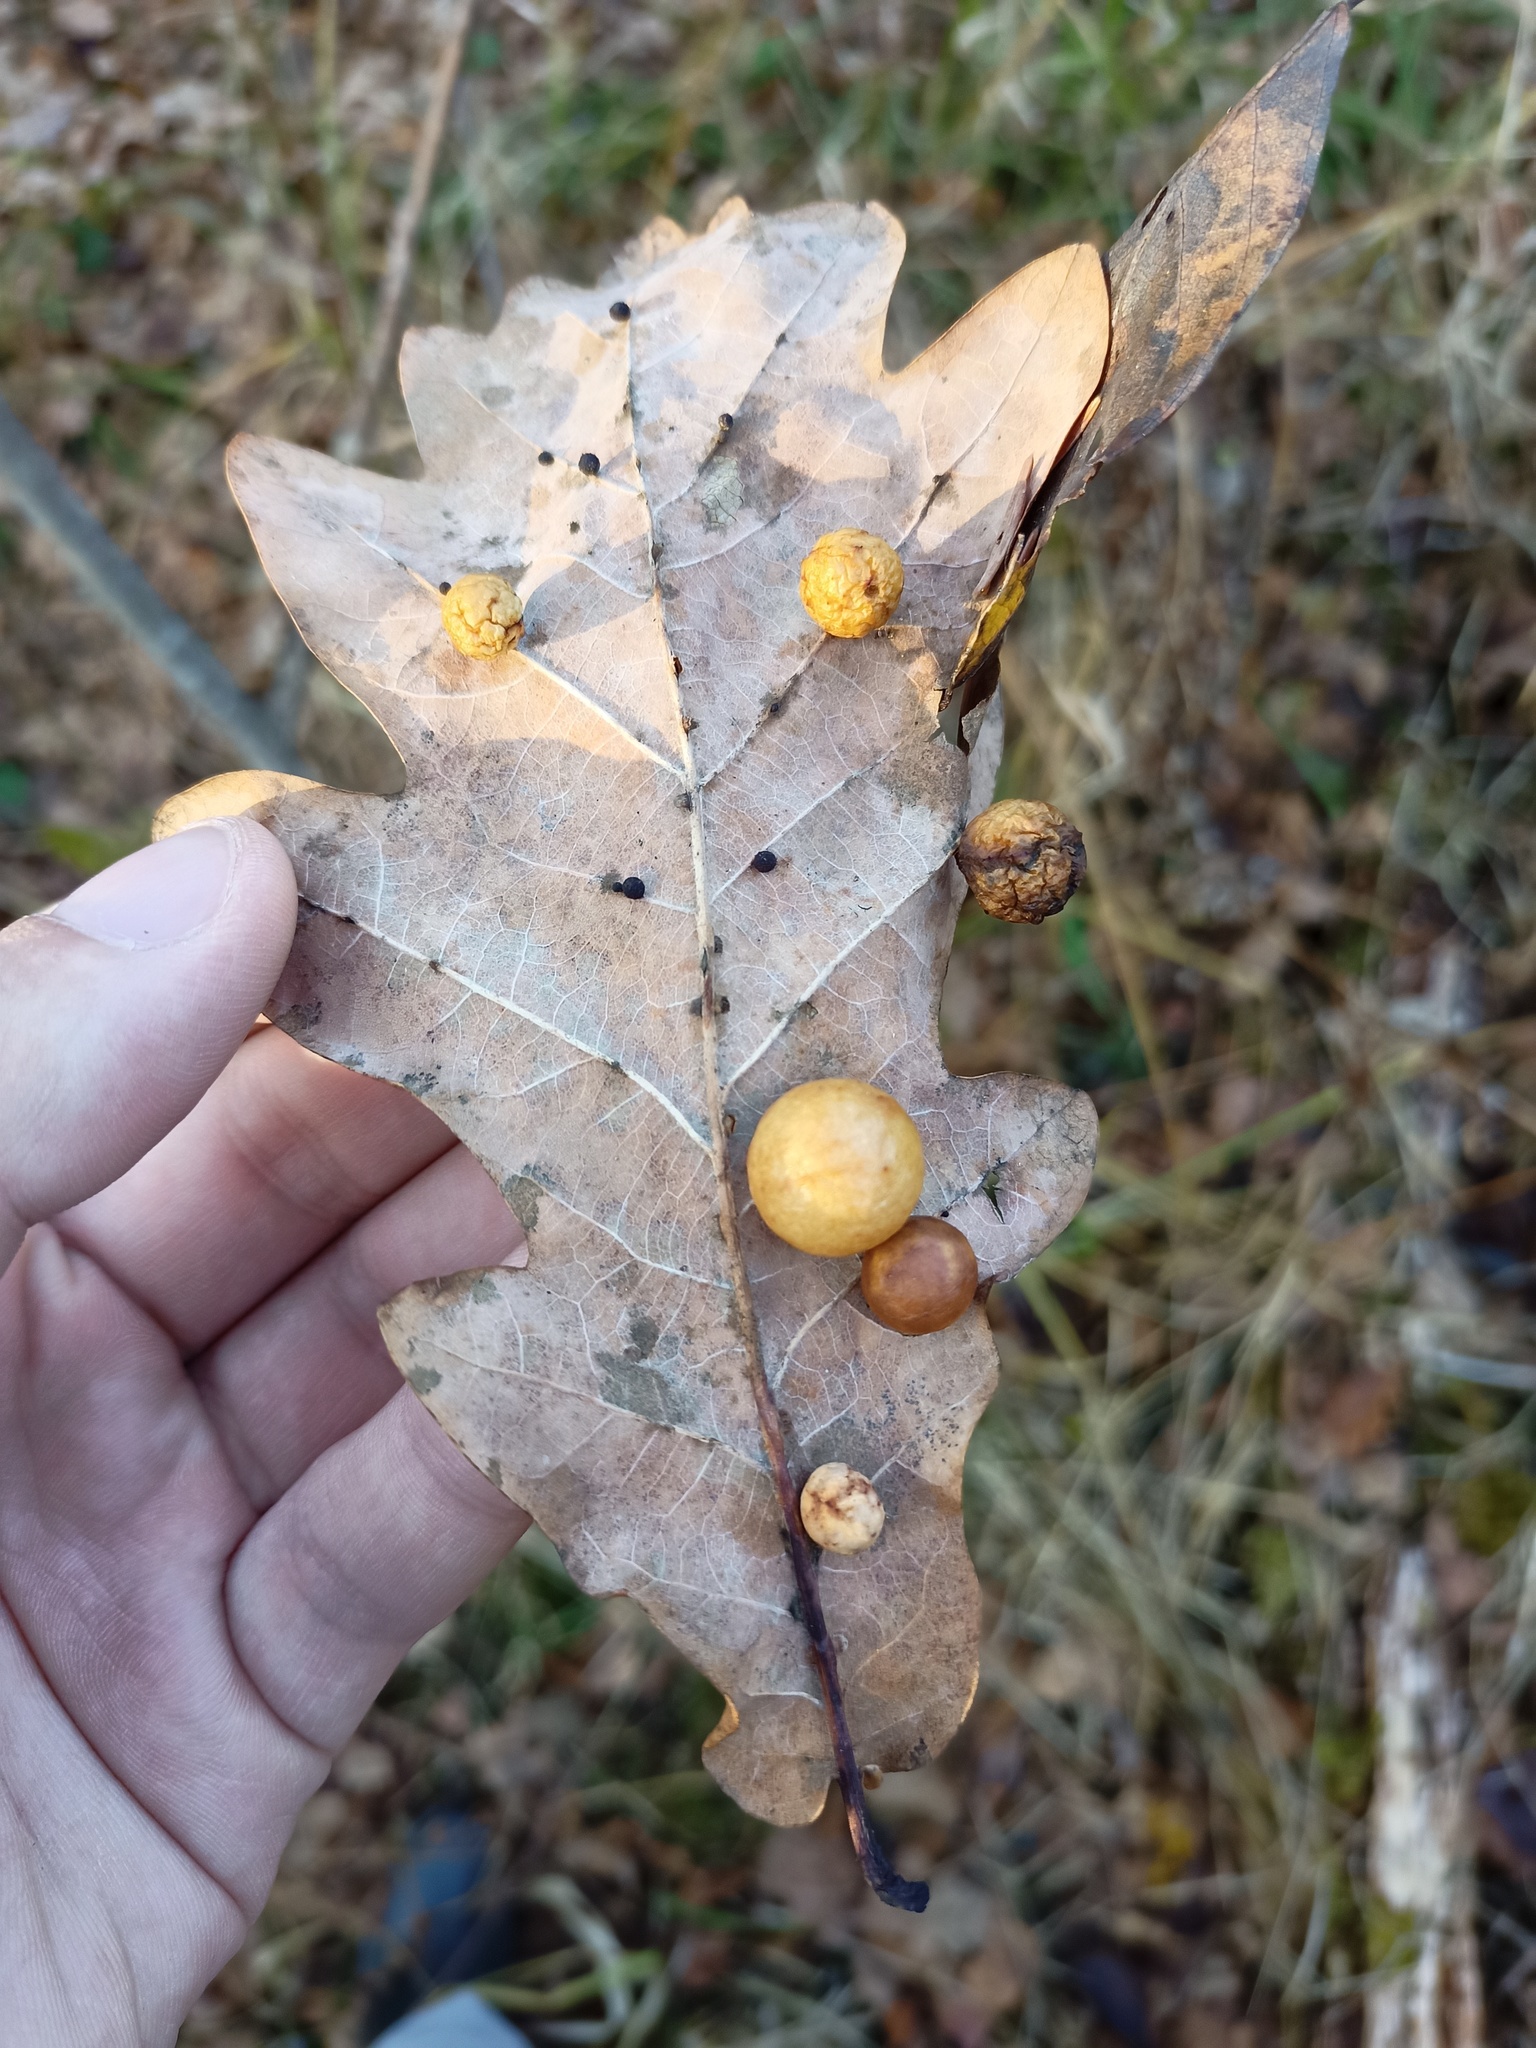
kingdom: Animalia
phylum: Arthropoda
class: Insecta
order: Hymenoptera
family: Cynipidae
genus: Cynips
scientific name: Cynips quercusfolii
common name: Cherry gall
